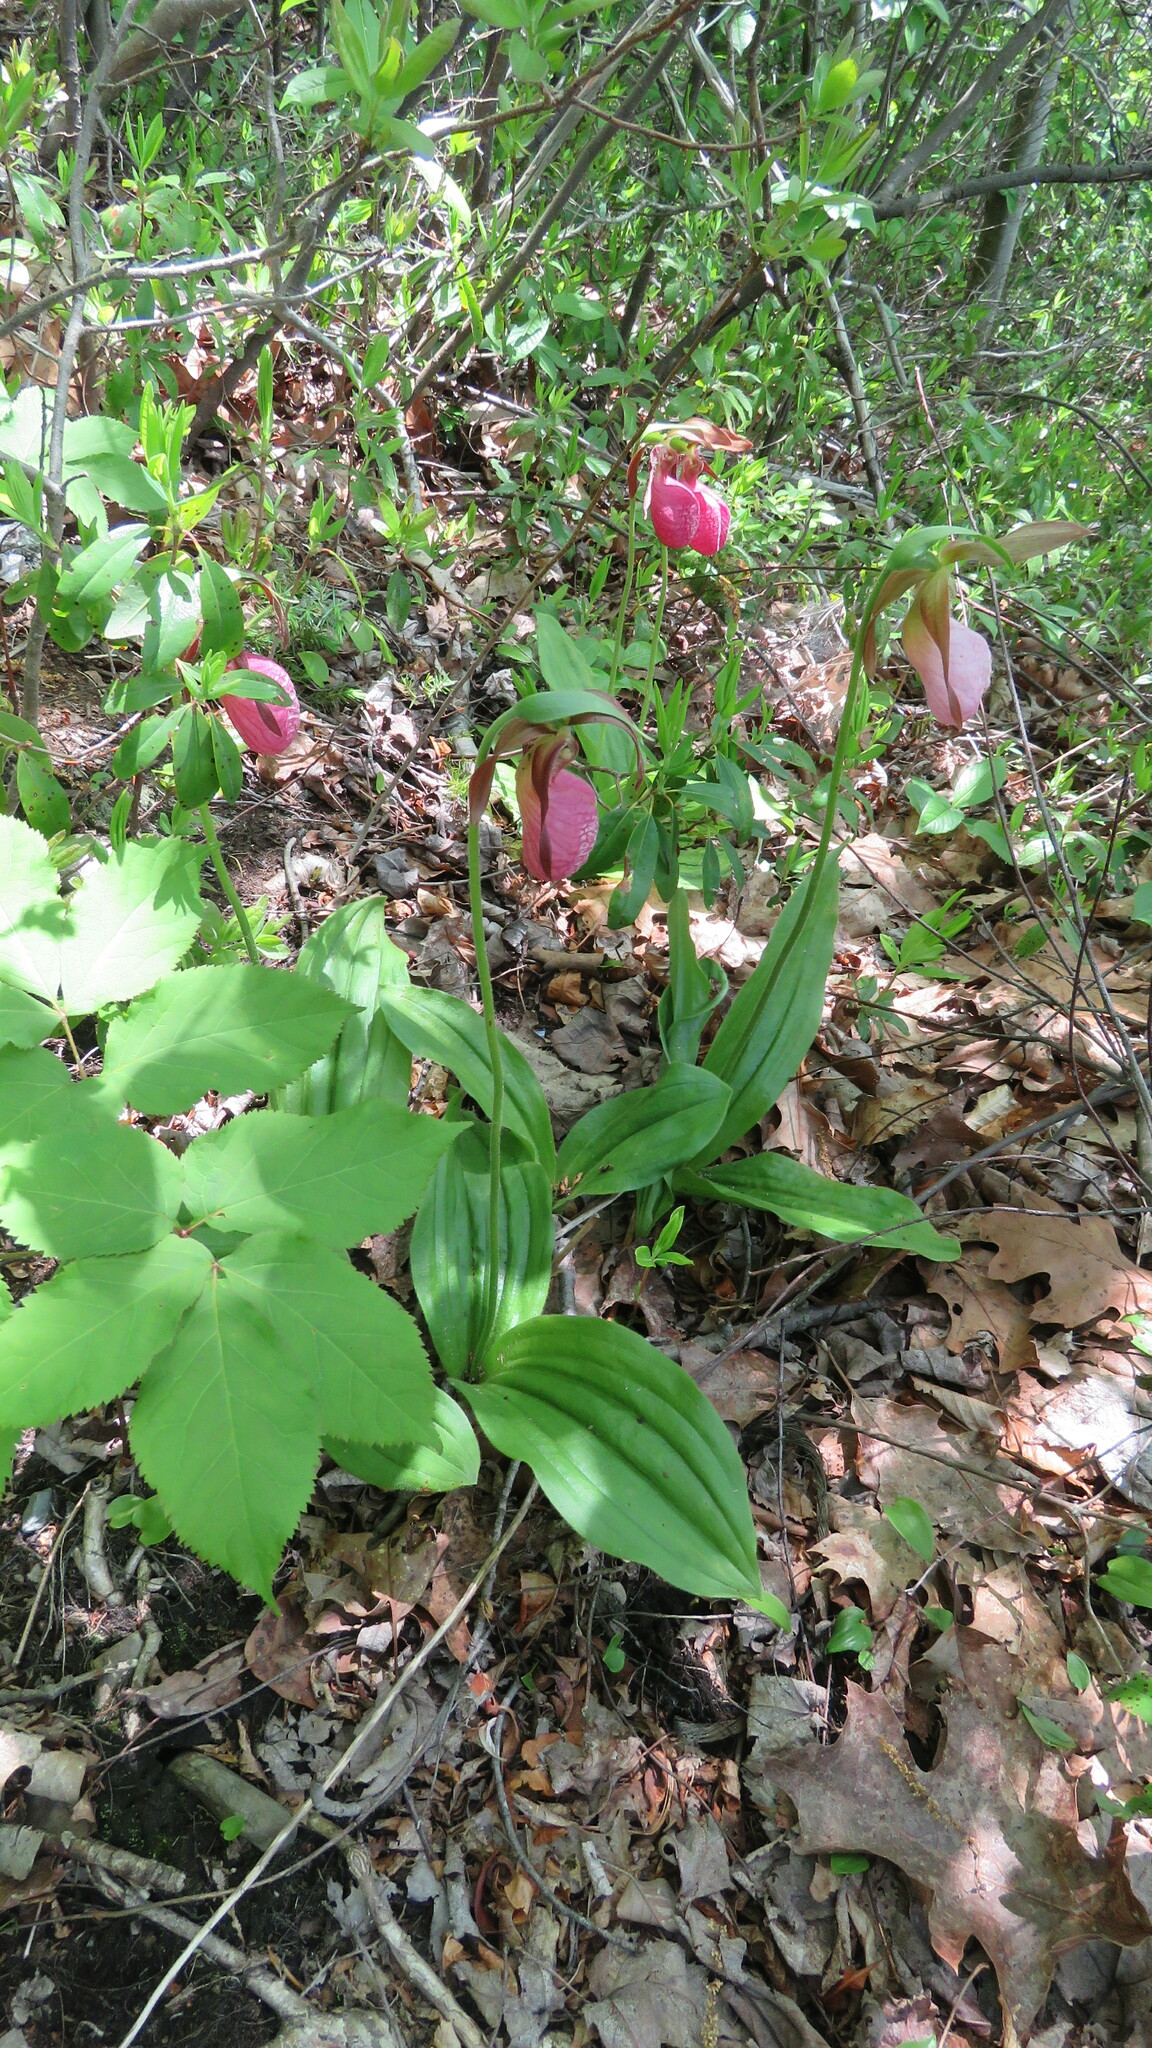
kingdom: Plantae
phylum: Tracheophyta
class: Liliopsida
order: Asparagales
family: Orchidaceae
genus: Cypripedium
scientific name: Cypripedium acaule
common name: Pink lady's-slipper
